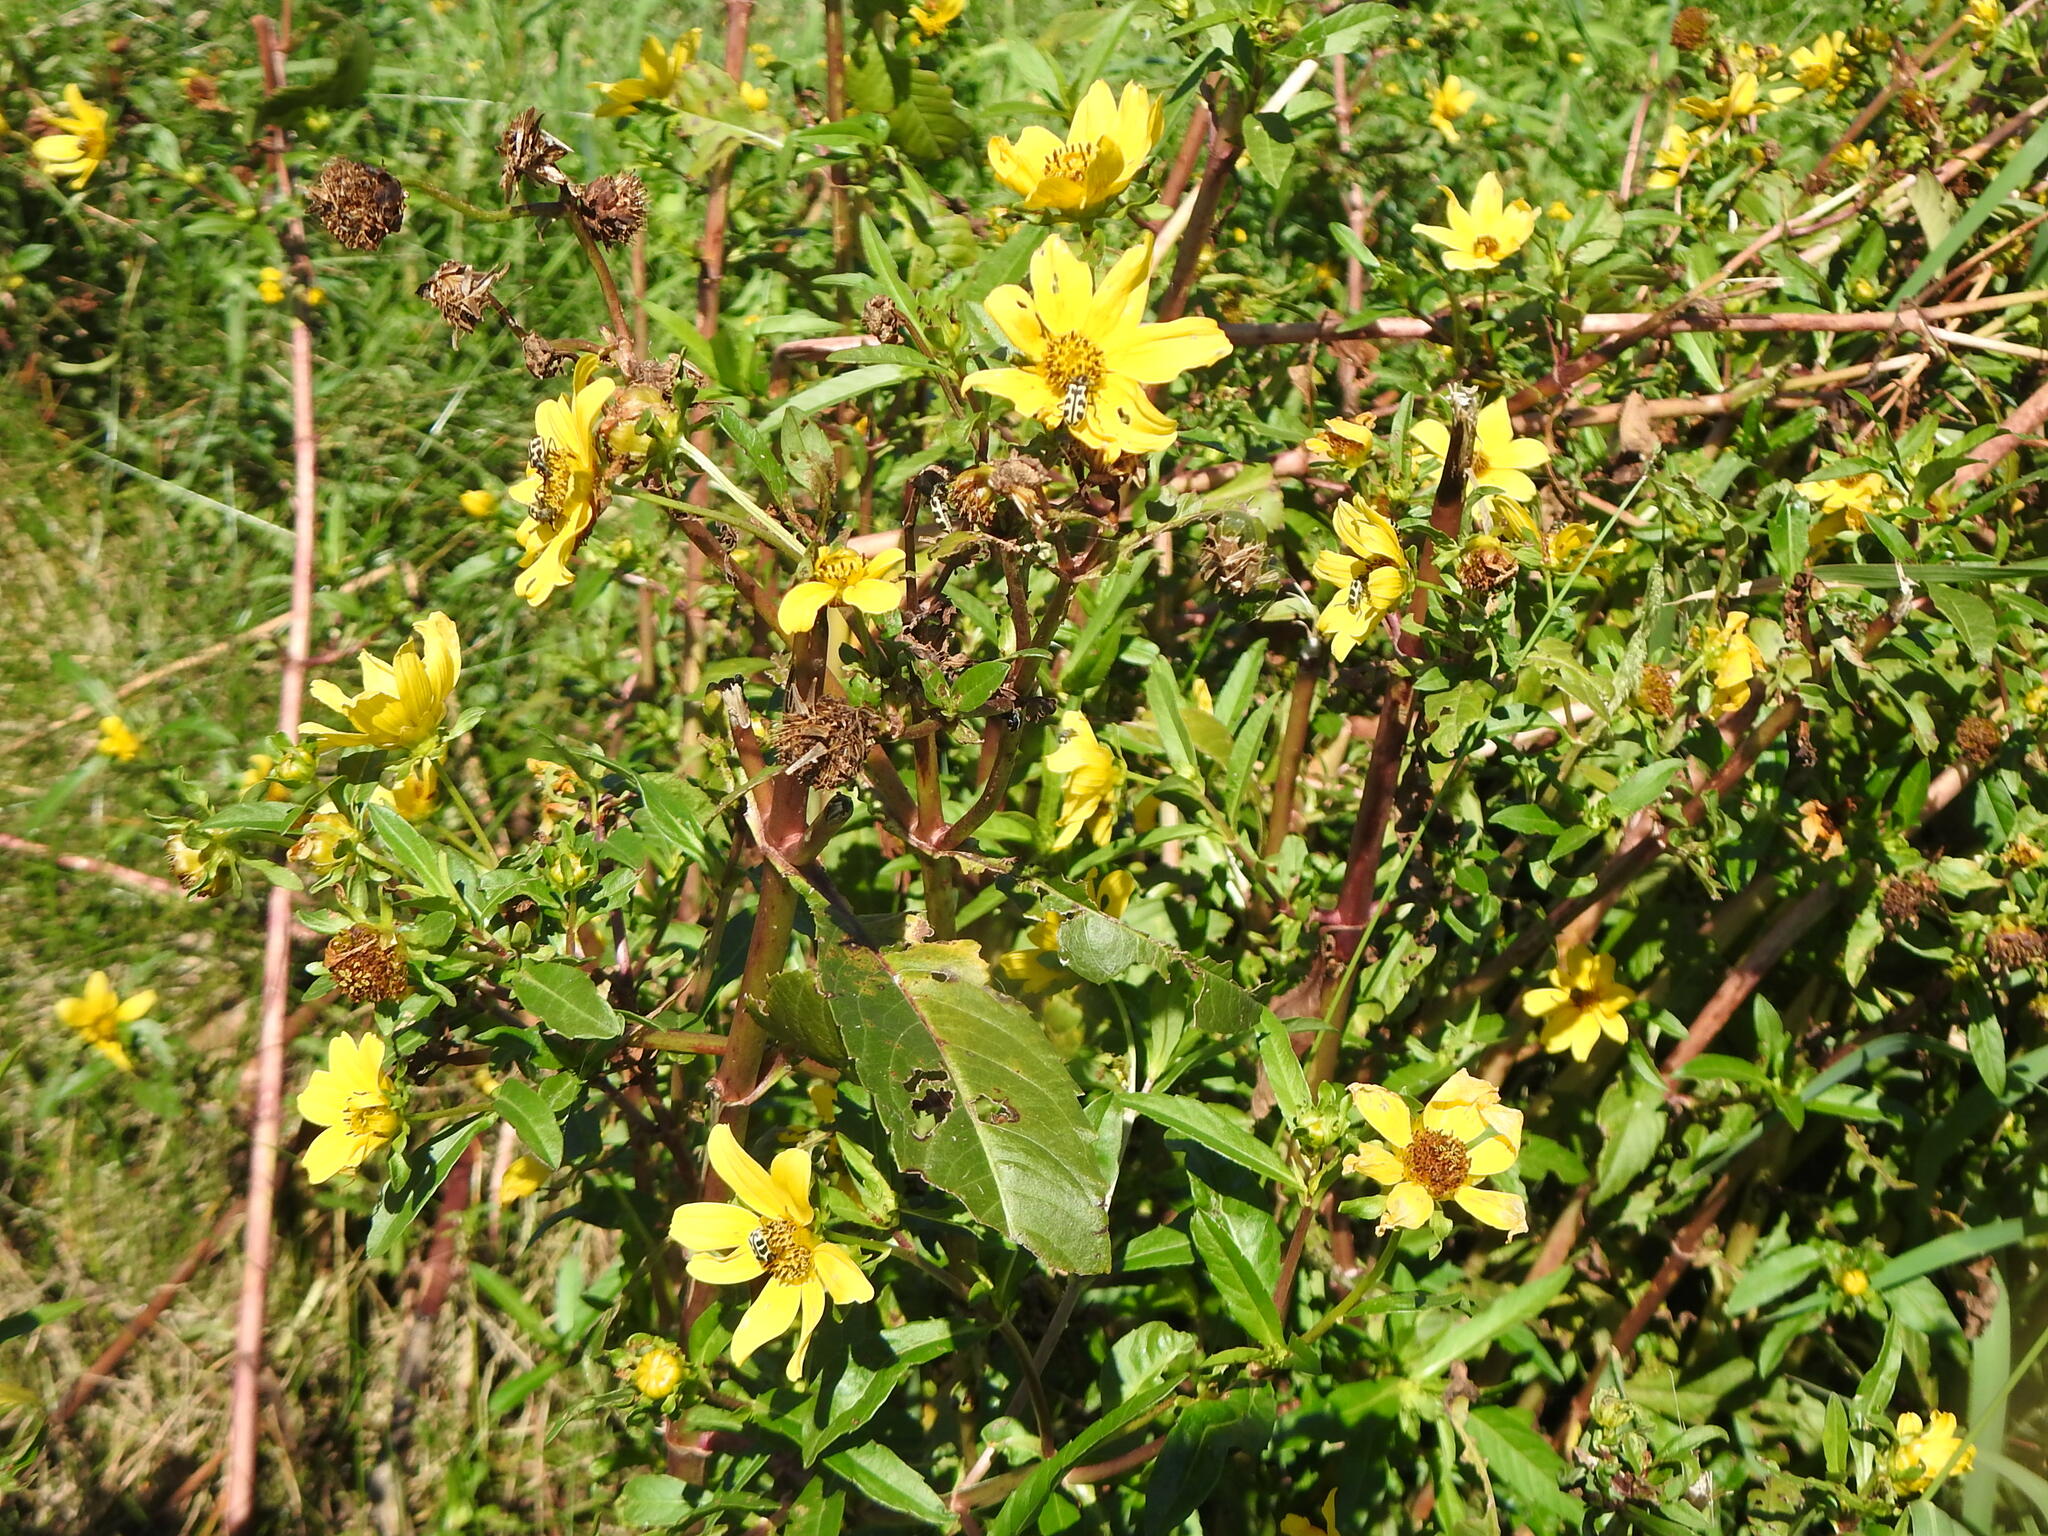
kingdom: Plantae
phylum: Tracheophyta
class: Magnoliopsida
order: Asterales
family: Asteraceae
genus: Bidens
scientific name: Bidens laevis
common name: Larger bur-marigold
